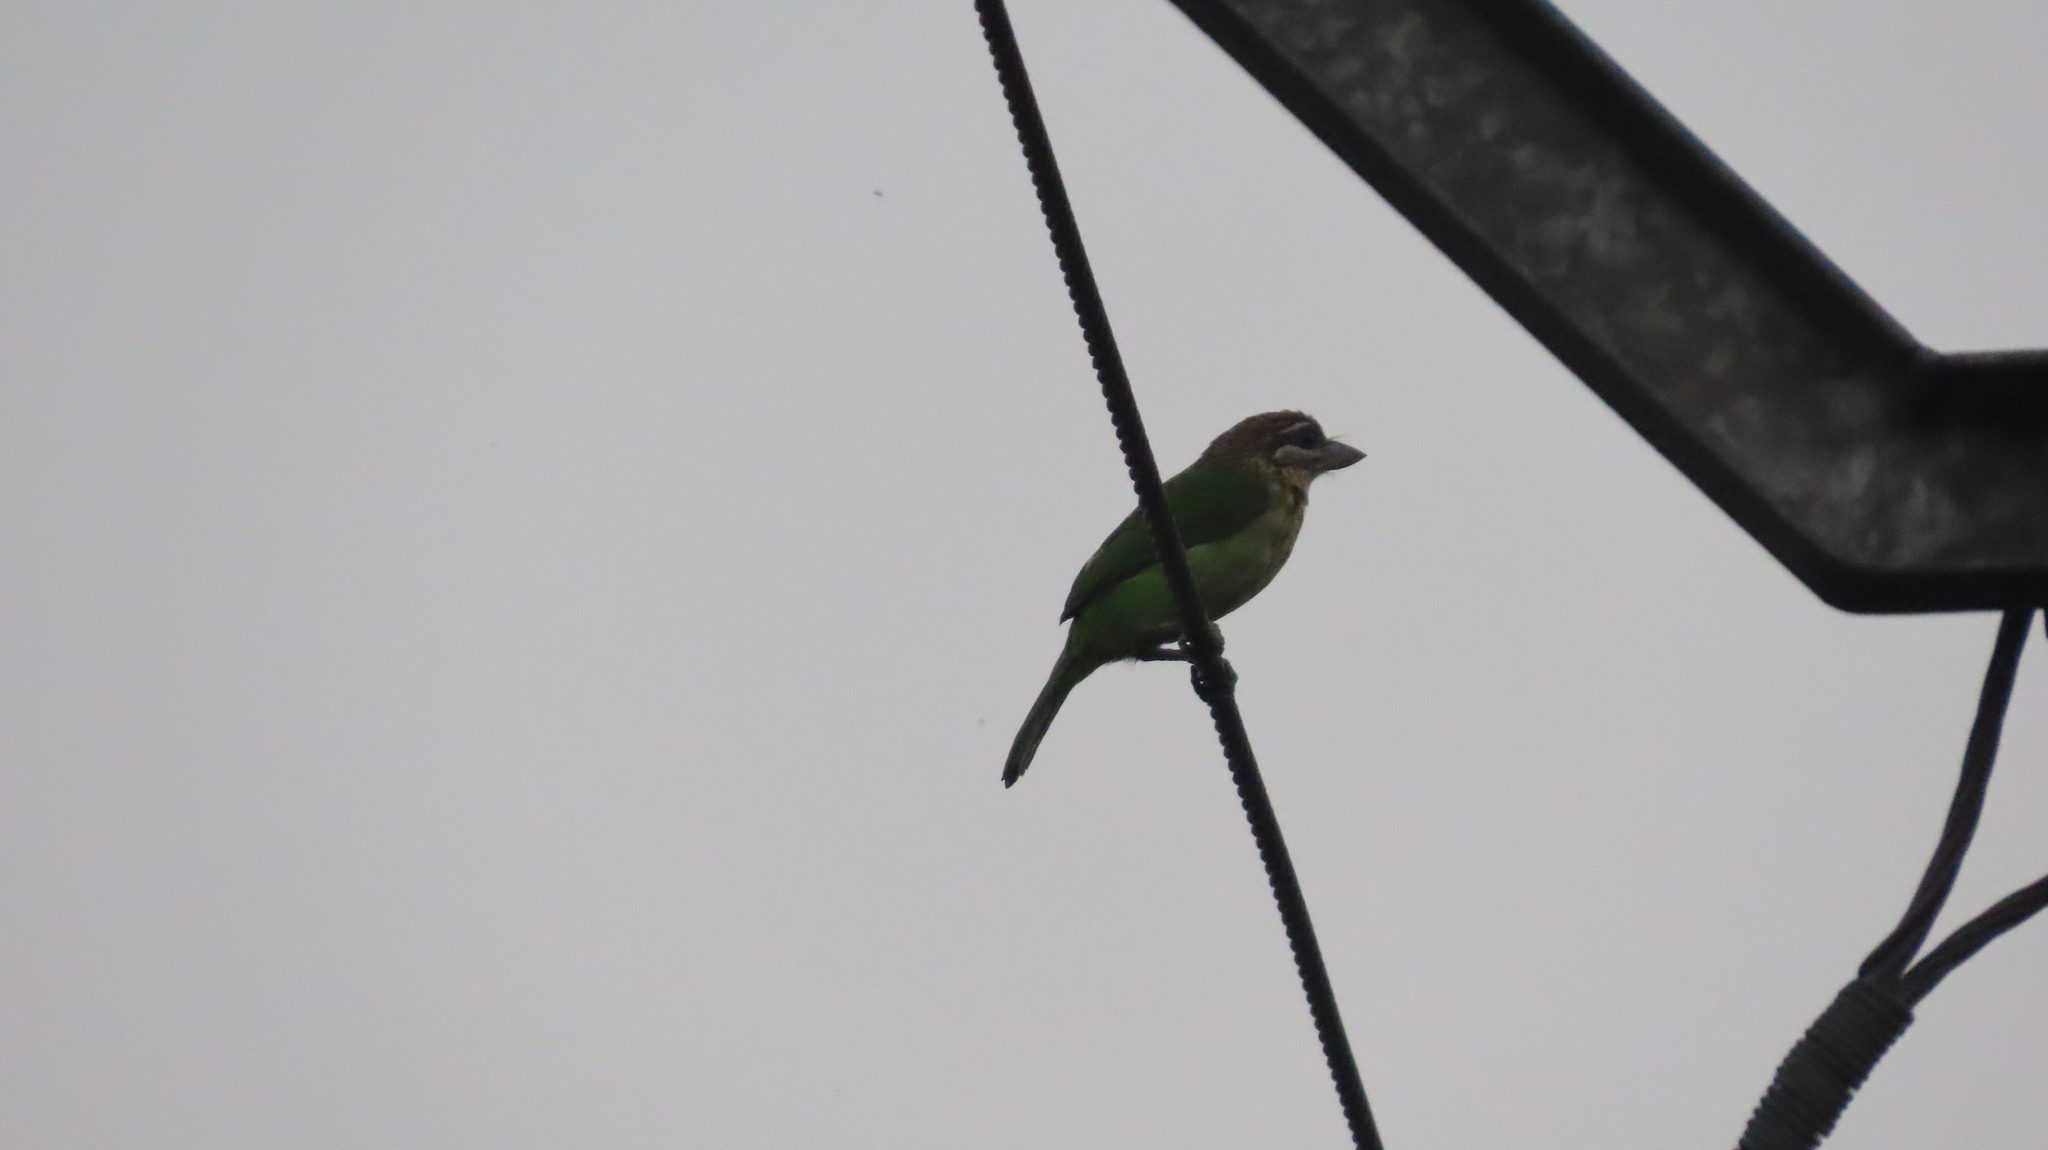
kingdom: Animalia
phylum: Chordata
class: Aves
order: Piciformes
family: Megalaimidae
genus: Psilopogon
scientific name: Psilopogon viridis
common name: White-cheeked barbet
